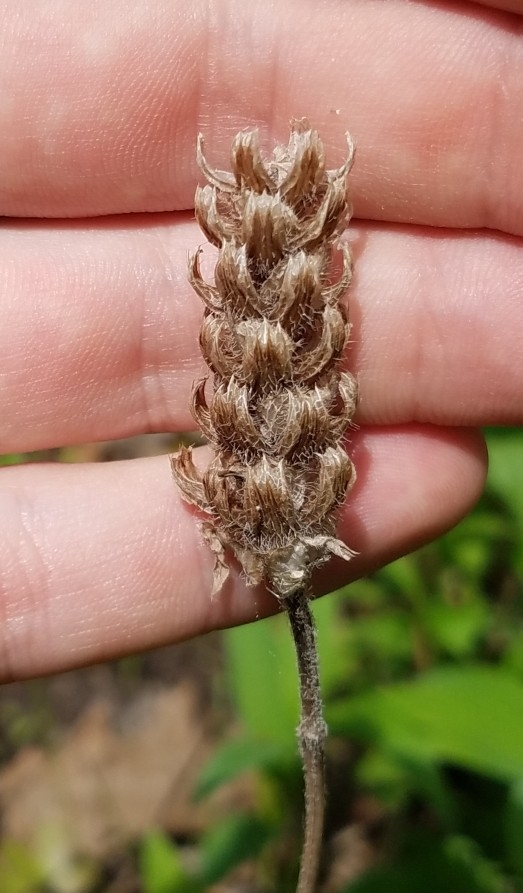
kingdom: Plantae
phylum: Tracheophyta
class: Magnoliopsida
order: Lamiales
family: Lamiaceae
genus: Prunella
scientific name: Prunella vulgaris
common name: Heal-all
